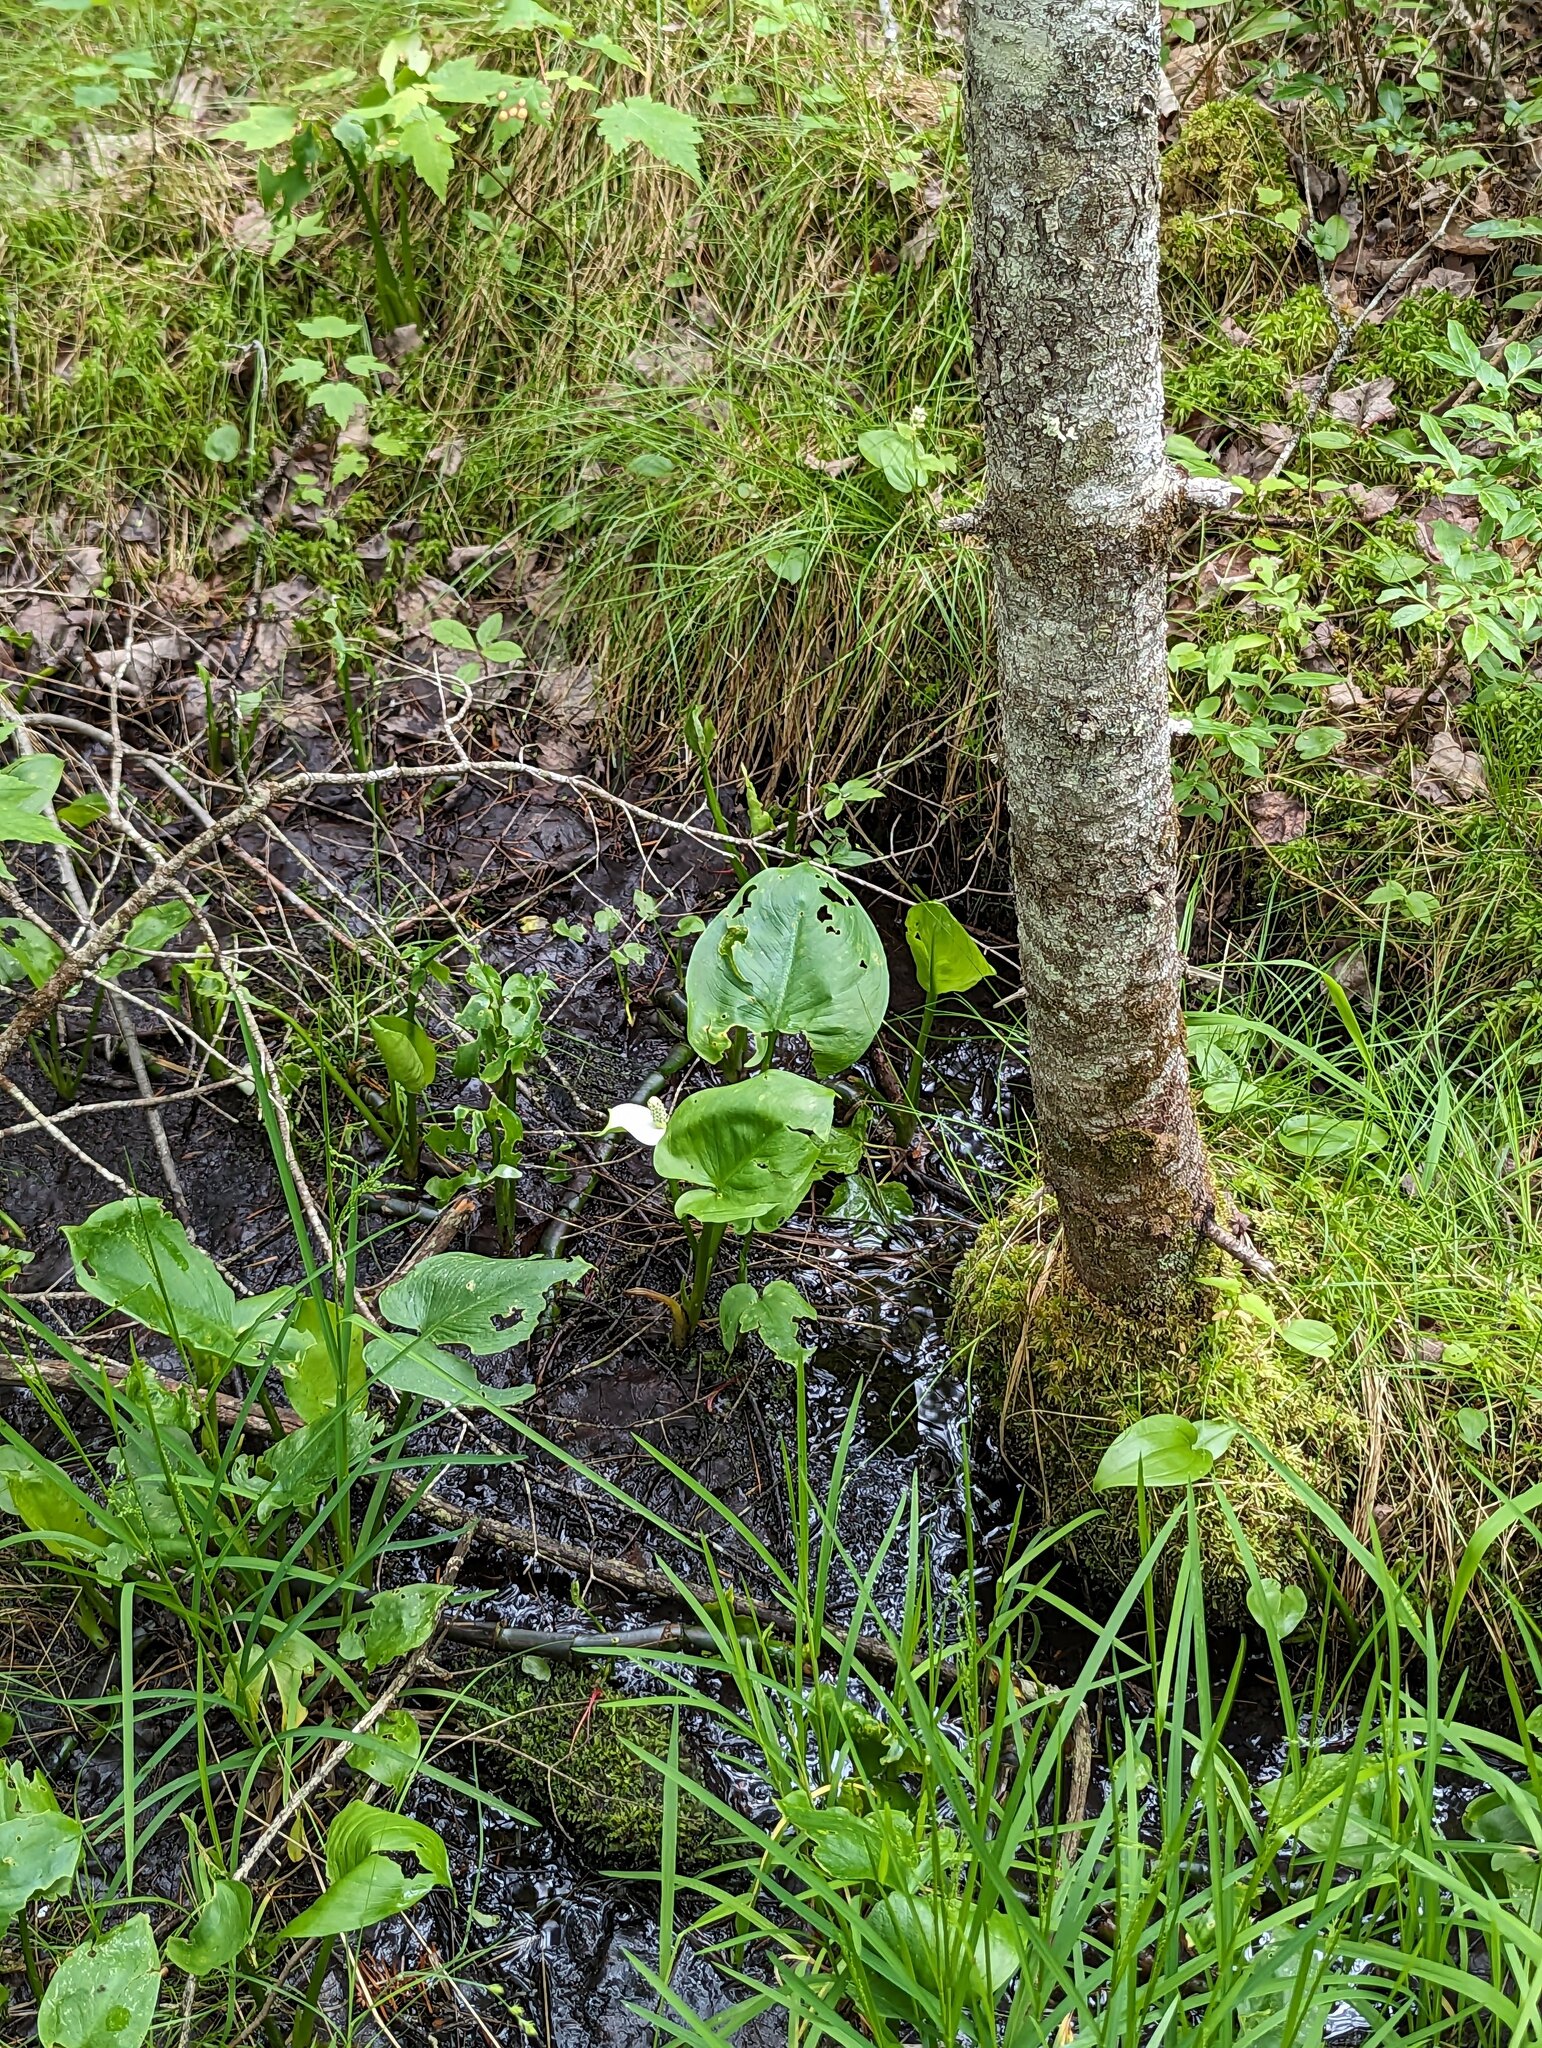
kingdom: Plantae
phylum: Tracheophyta
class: Liliopsida
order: Alismatales
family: Araceae
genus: Calla
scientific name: Calla palustris
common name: Bog arum
